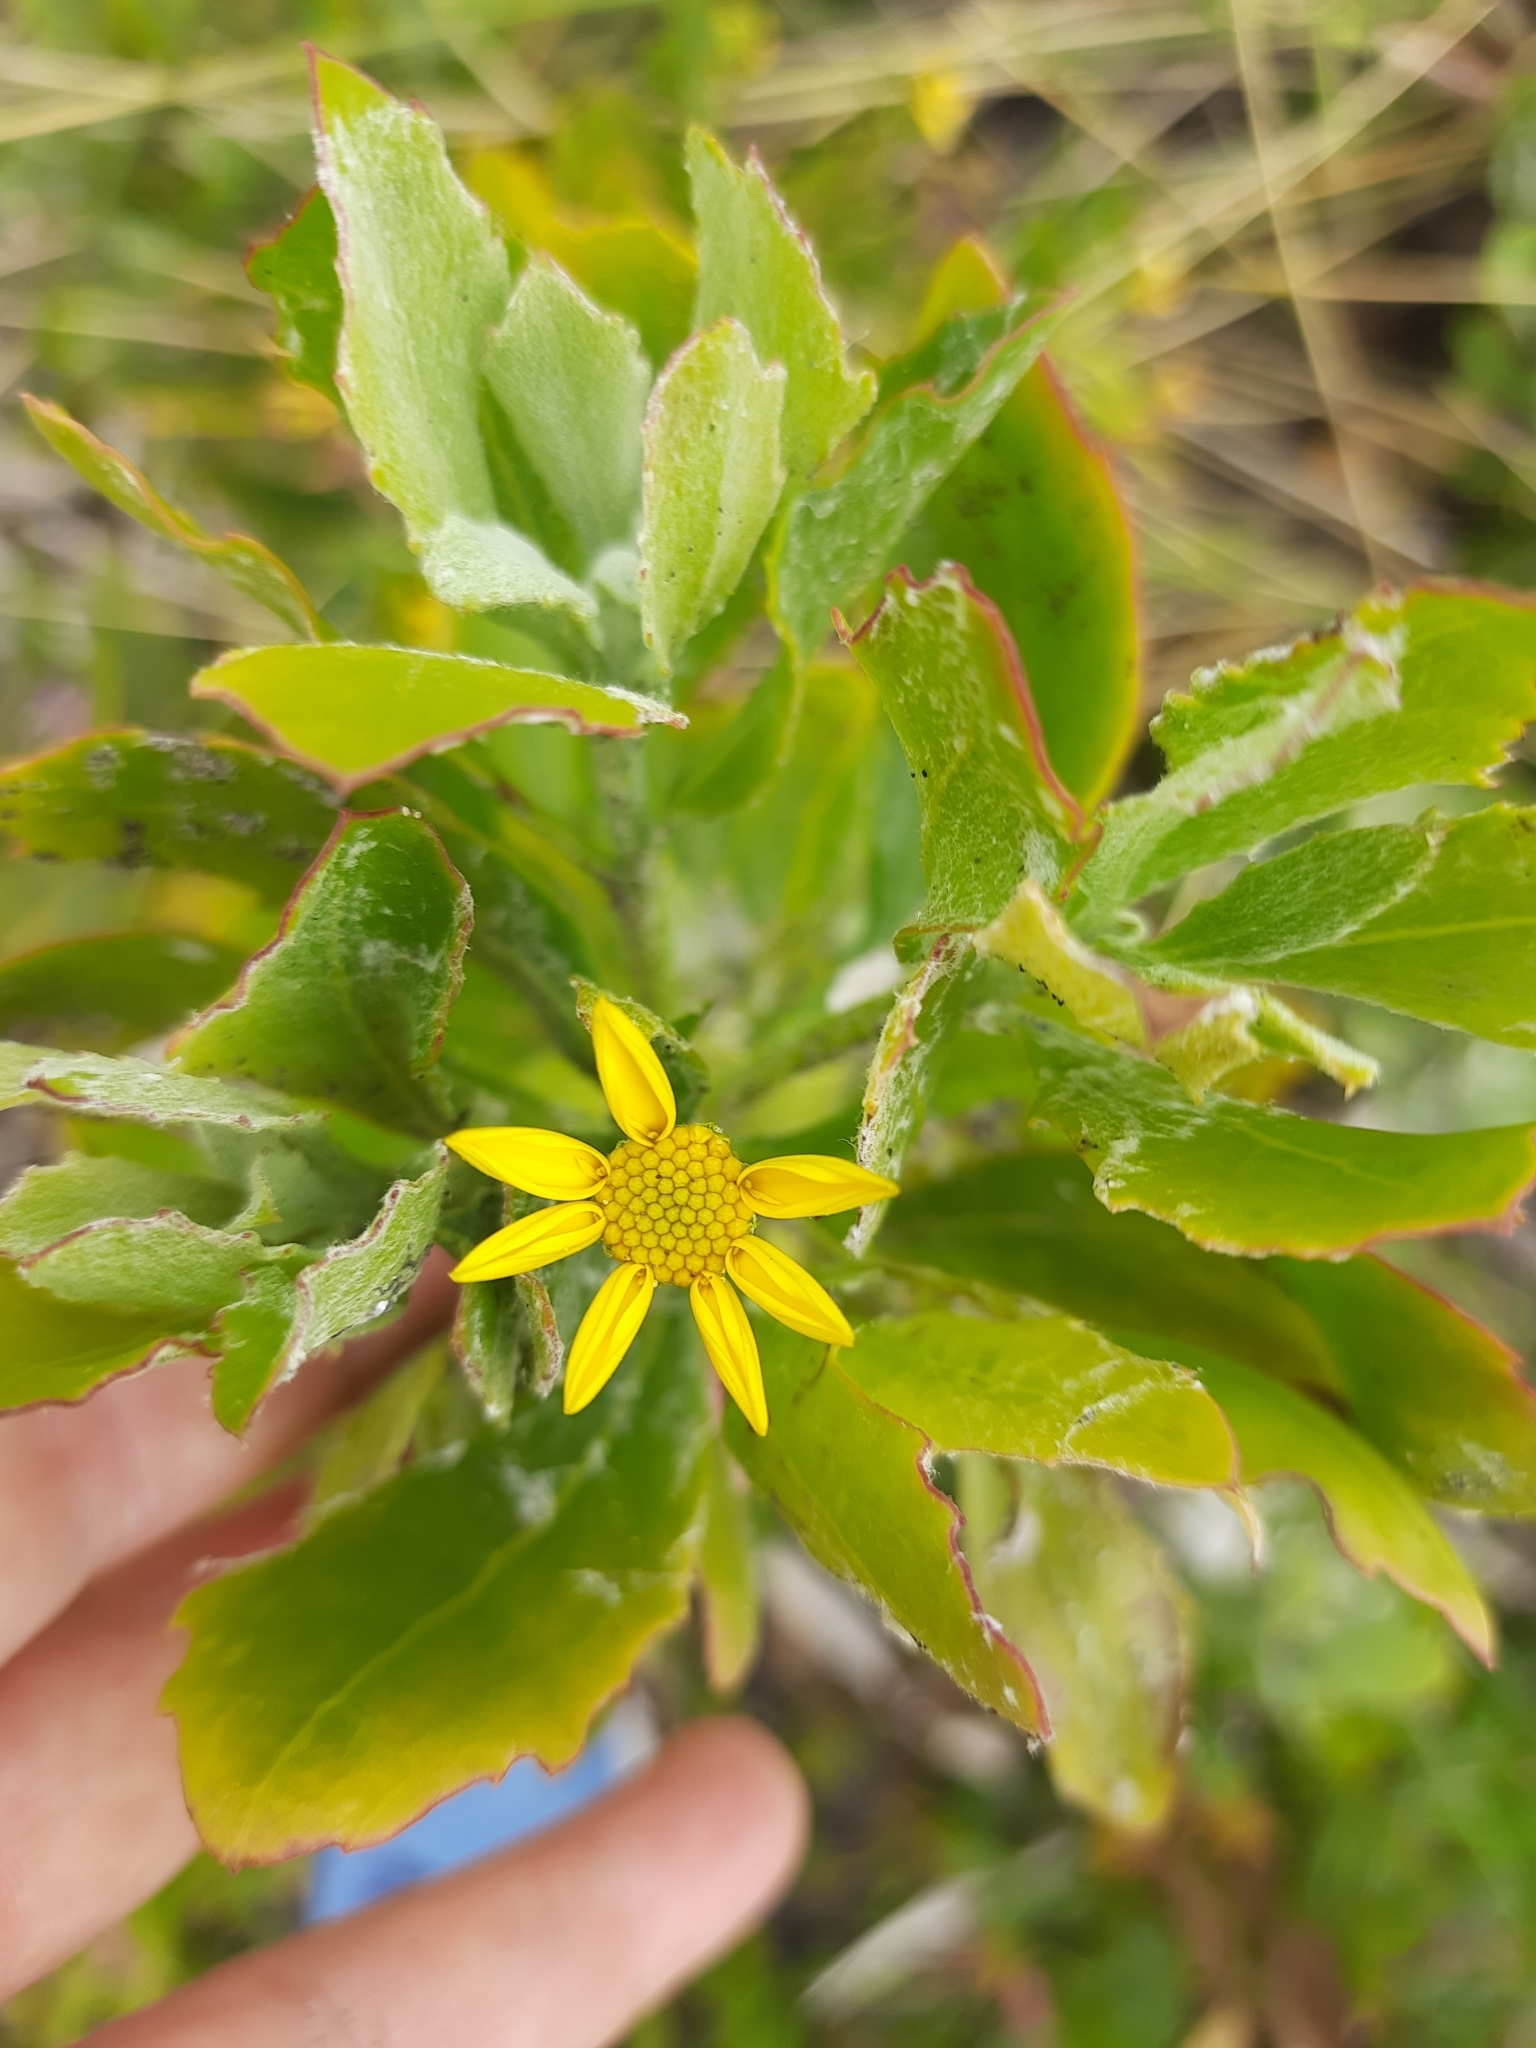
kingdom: Plantae
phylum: Tracheophyta
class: Magnoliopsida
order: Asterales
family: Asteraceae
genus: Osteospermum
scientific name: Osteospermum moniliferum
